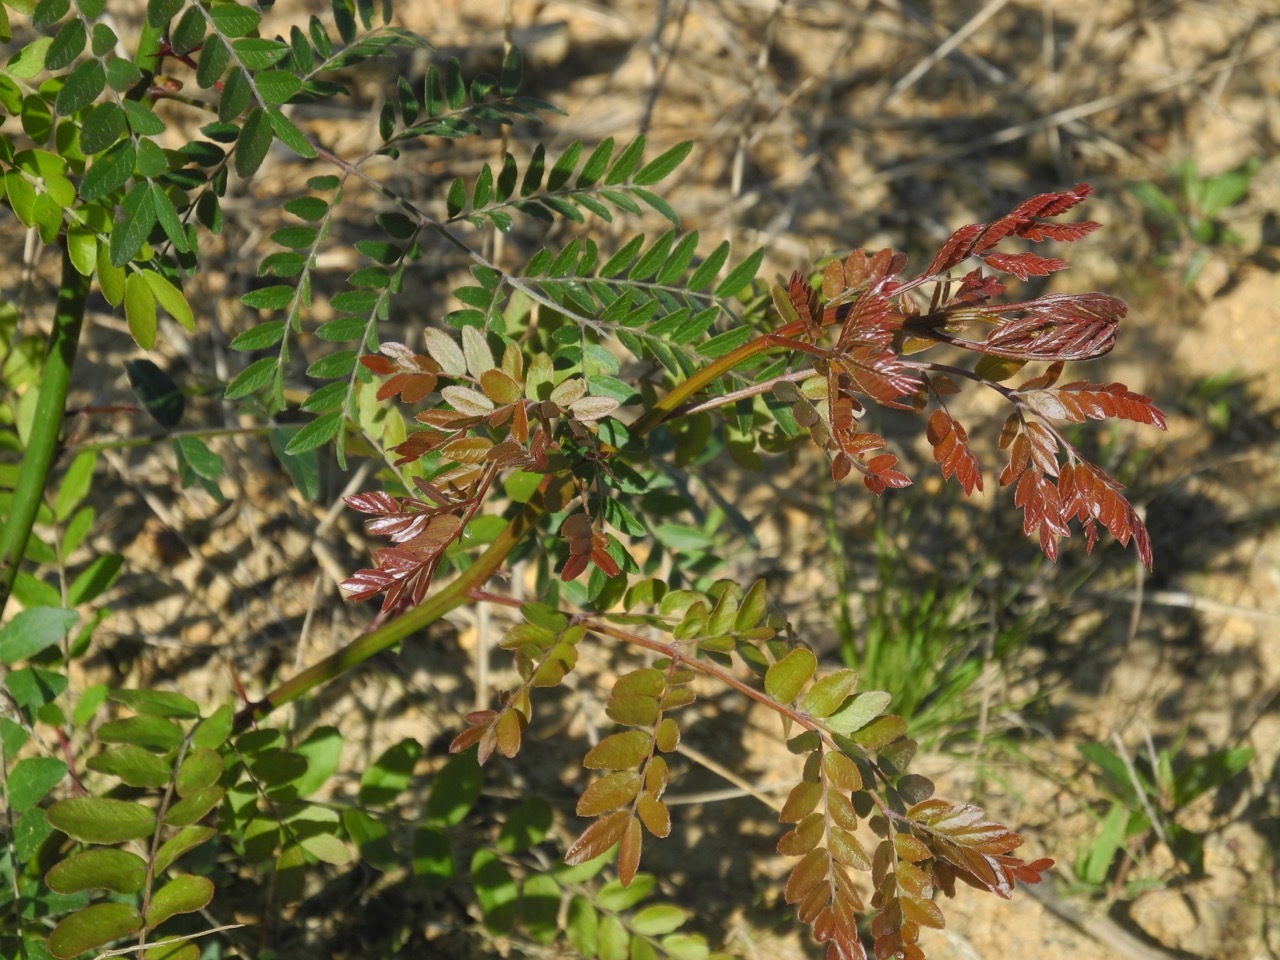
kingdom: Plantae
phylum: Tracheophyta
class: Magnoliopsida
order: Fabales
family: Fabaceae
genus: Gleditsia
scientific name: Gleditsia triacanthos
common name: Common honeylocust
